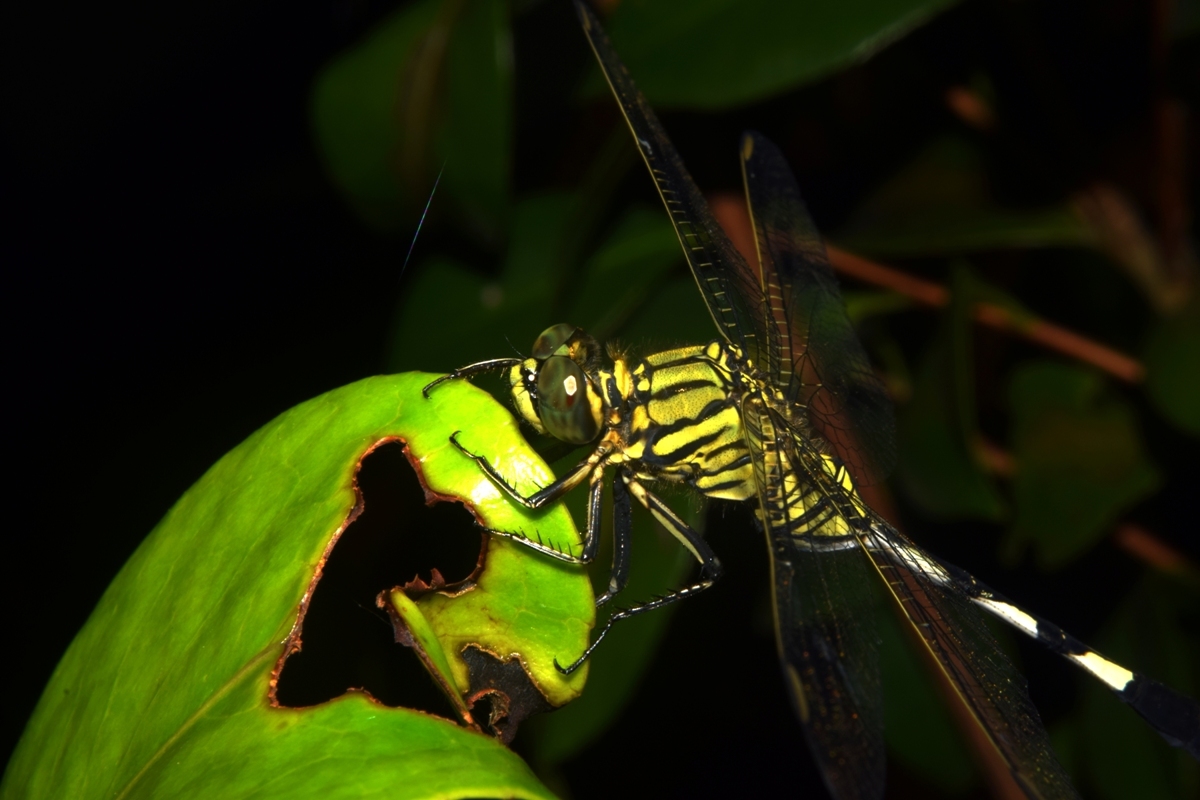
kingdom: Animalia
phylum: Arthropoda
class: Insecta
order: Odonata
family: Libellulidae
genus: Orthetrum
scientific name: Orthetrum sabina
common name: Slender skimmer
